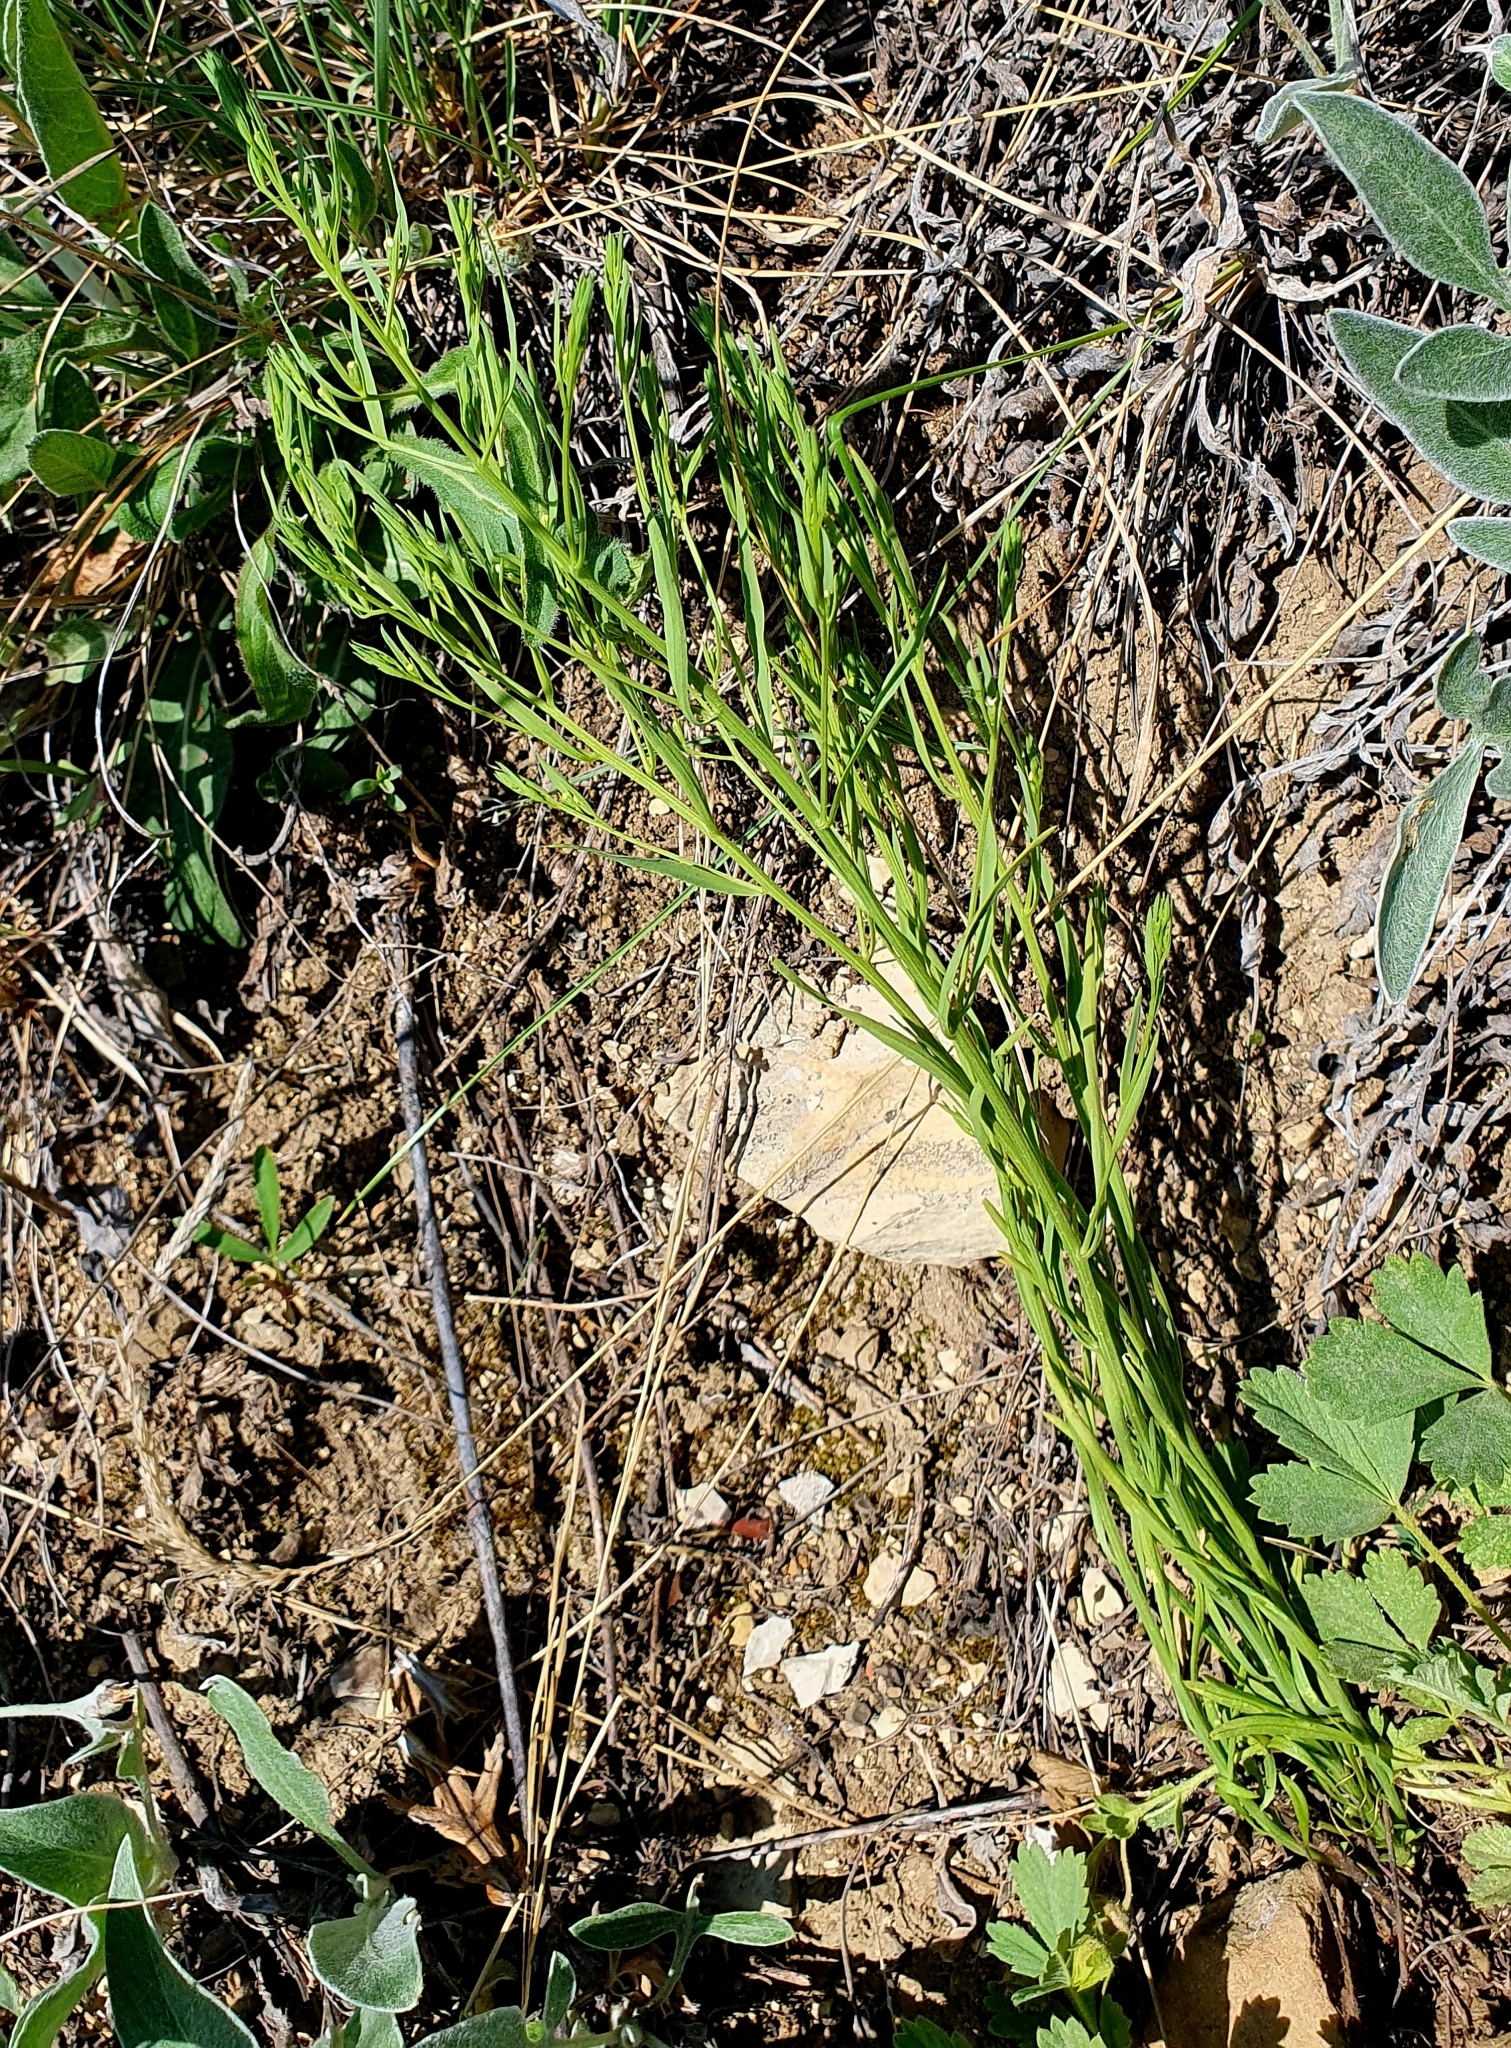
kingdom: Plantae
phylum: Tracheophyta
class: Magnoliopsida
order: Santalales
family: Thesiaceae
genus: Thesium
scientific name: Thesium ramosum
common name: Field thesium
